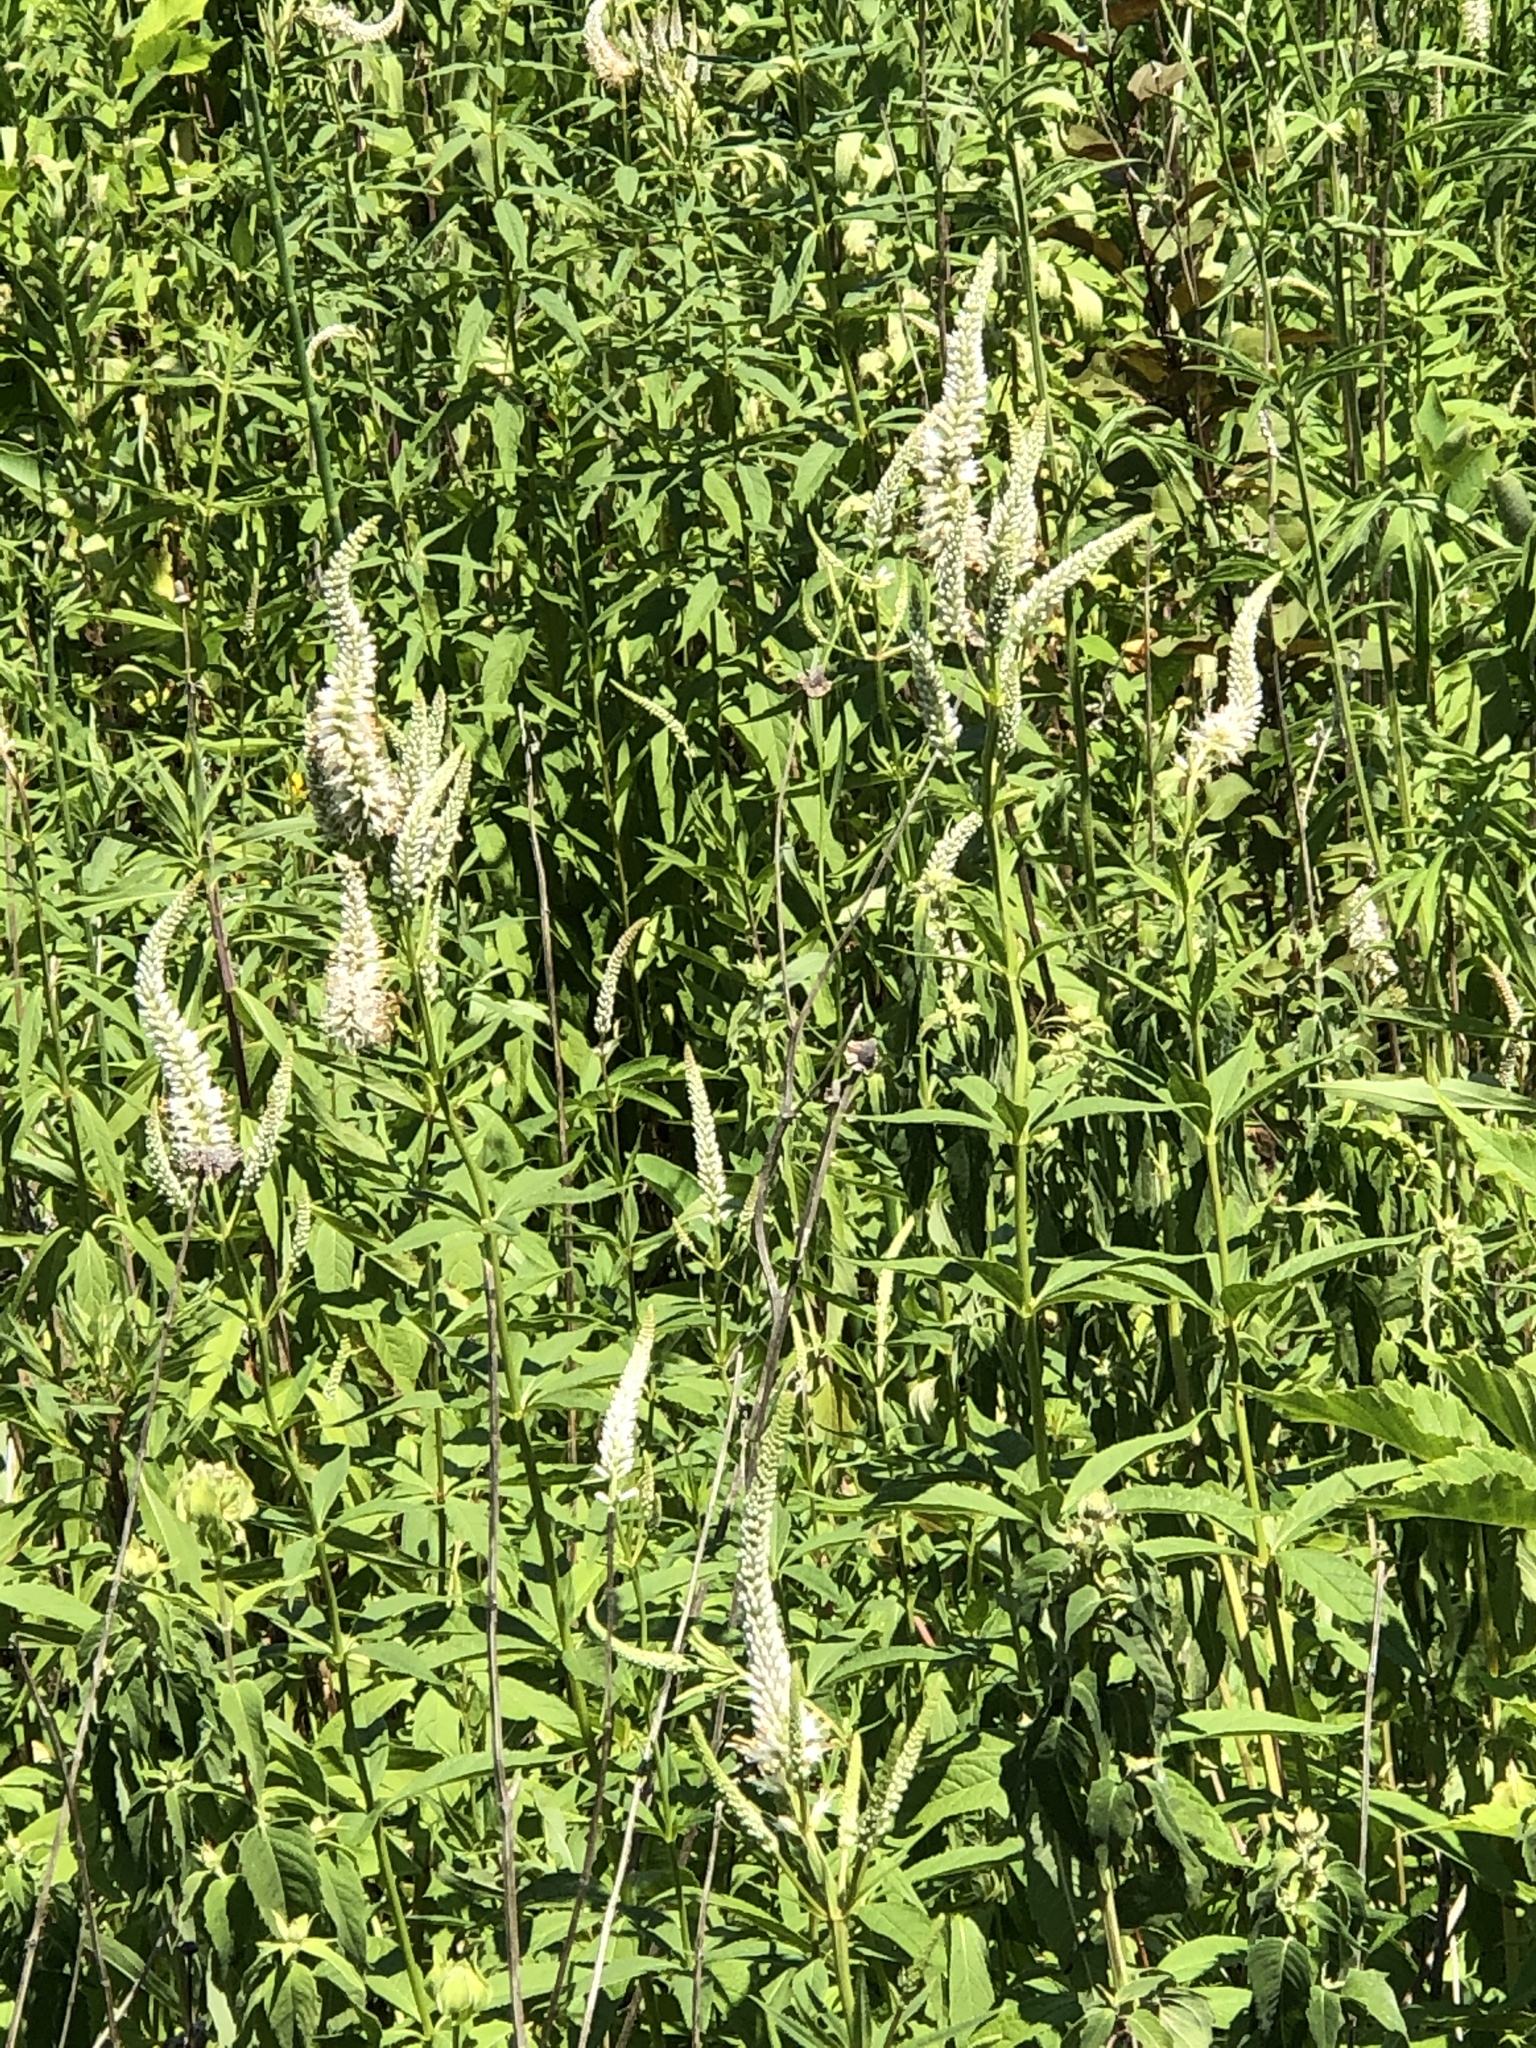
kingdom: Plantae
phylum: Tracheophyta
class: Magnoliopsida
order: Lamiales
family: Plantaginaceae
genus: Veronicastrum
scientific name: Veronicastrum virginicum
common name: Blackroot
